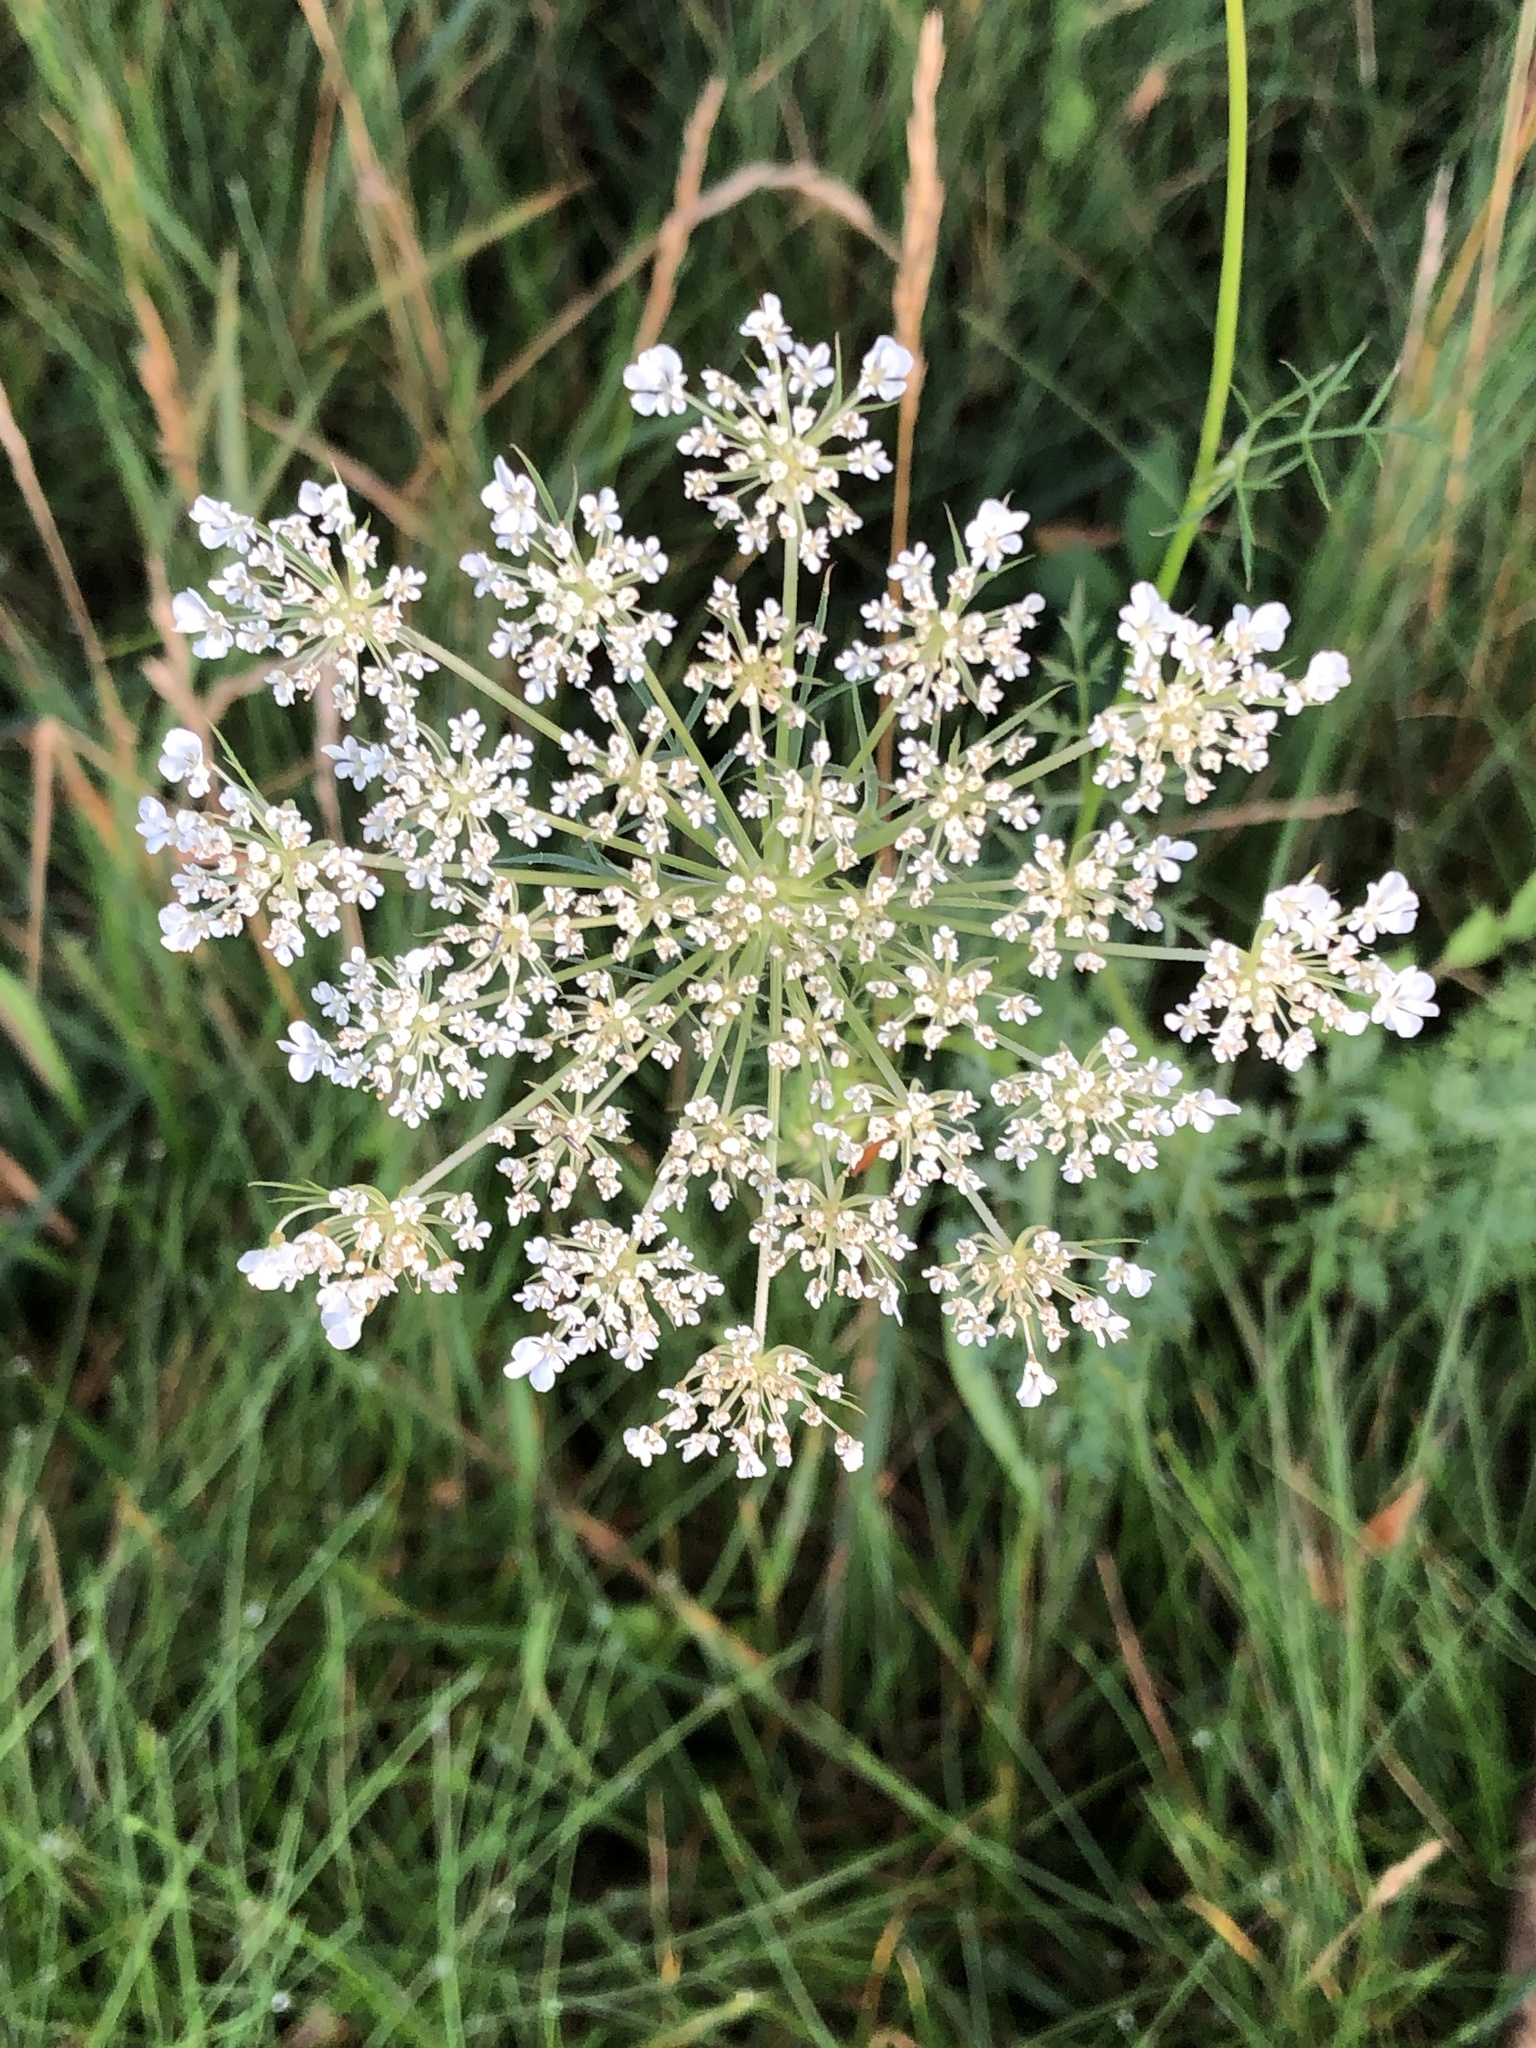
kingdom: Plantae
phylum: Tracheophyta
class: Magnoliopsida
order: Apiales
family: Apiaceae
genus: Daucus
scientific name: Daucus carota
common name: Wild carrot
